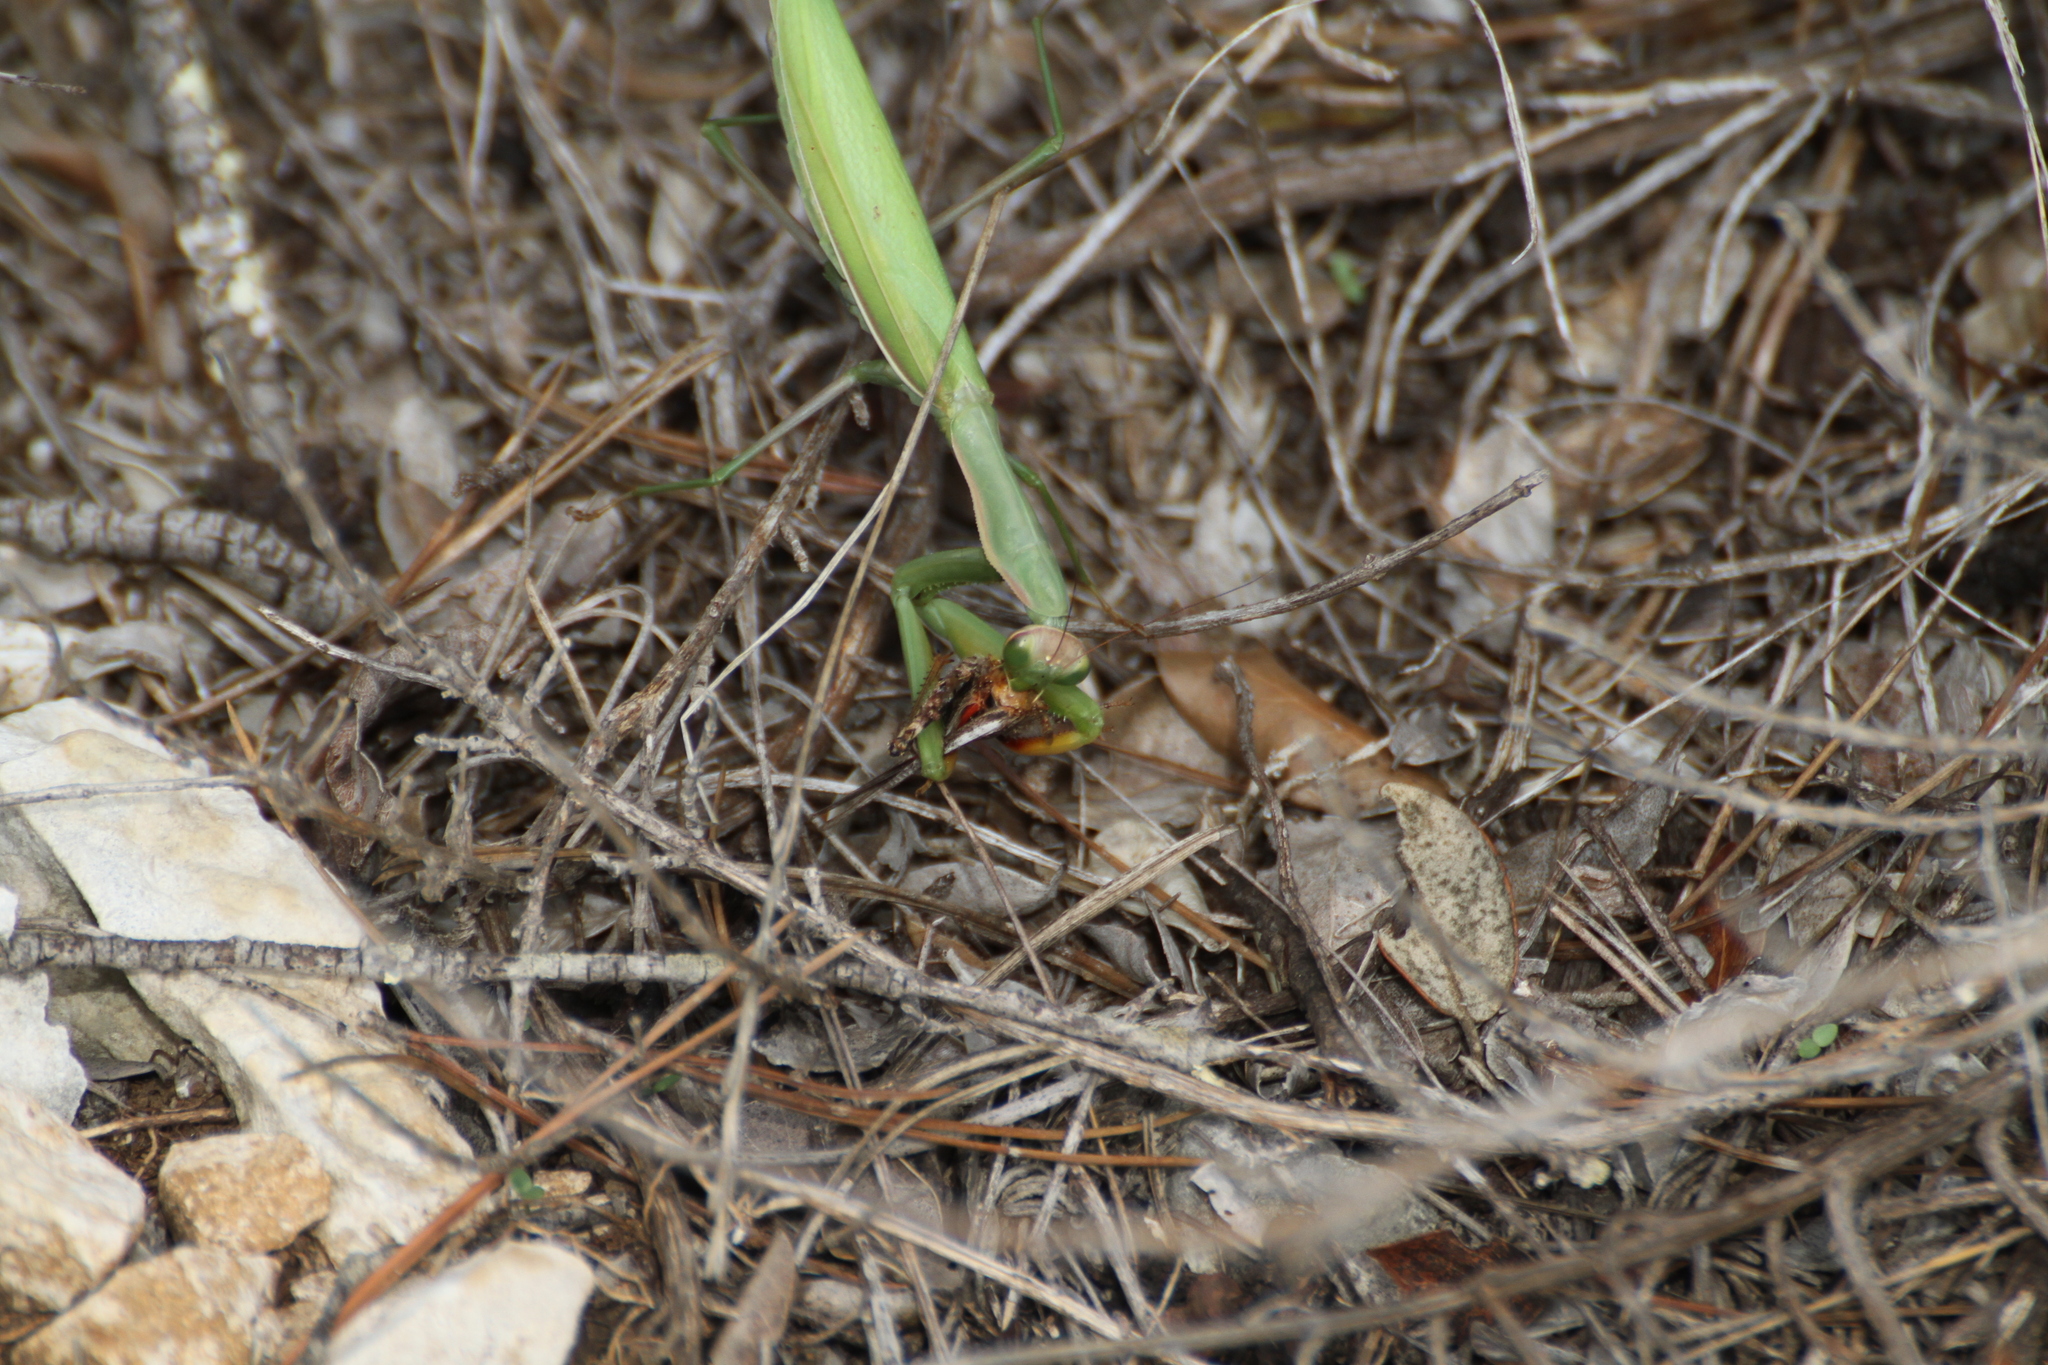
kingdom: Animalia
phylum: Arthropoda
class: Insecta
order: Mantodea
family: Mantidae
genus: Mantis
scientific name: Mantis religiosa
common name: Praying mantis
